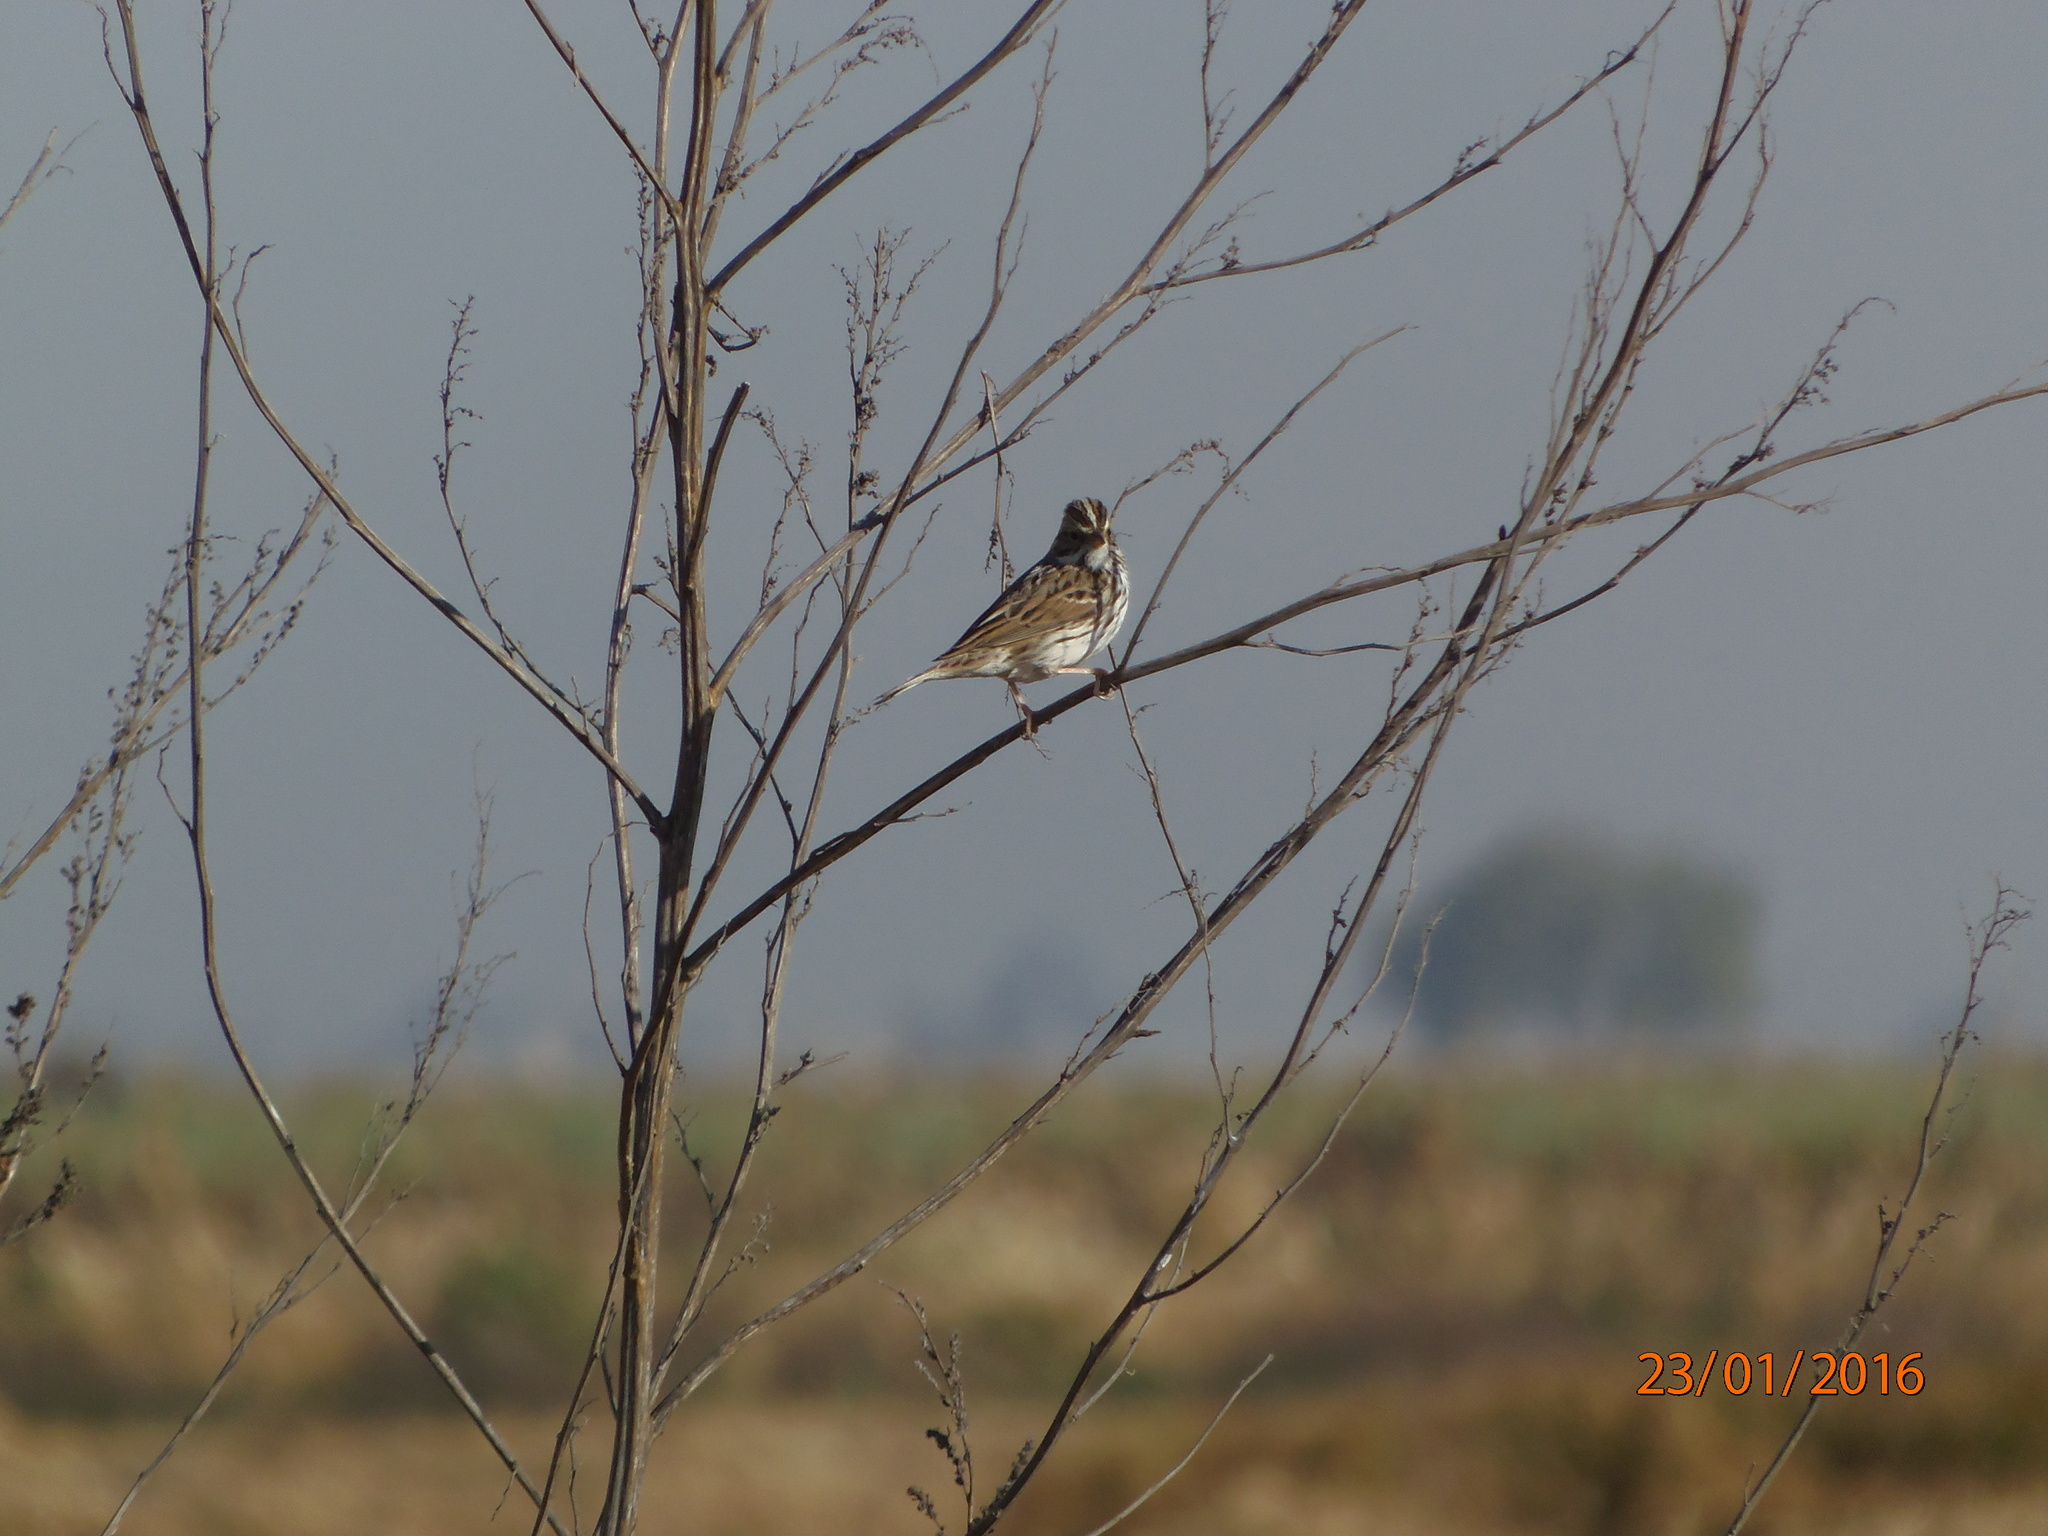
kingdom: Animalia
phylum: Chordata
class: Aves
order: Passeriformes
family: Passerellidae
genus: Passerculus
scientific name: Passerculus sandwichensis
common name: Savannah sparrow
